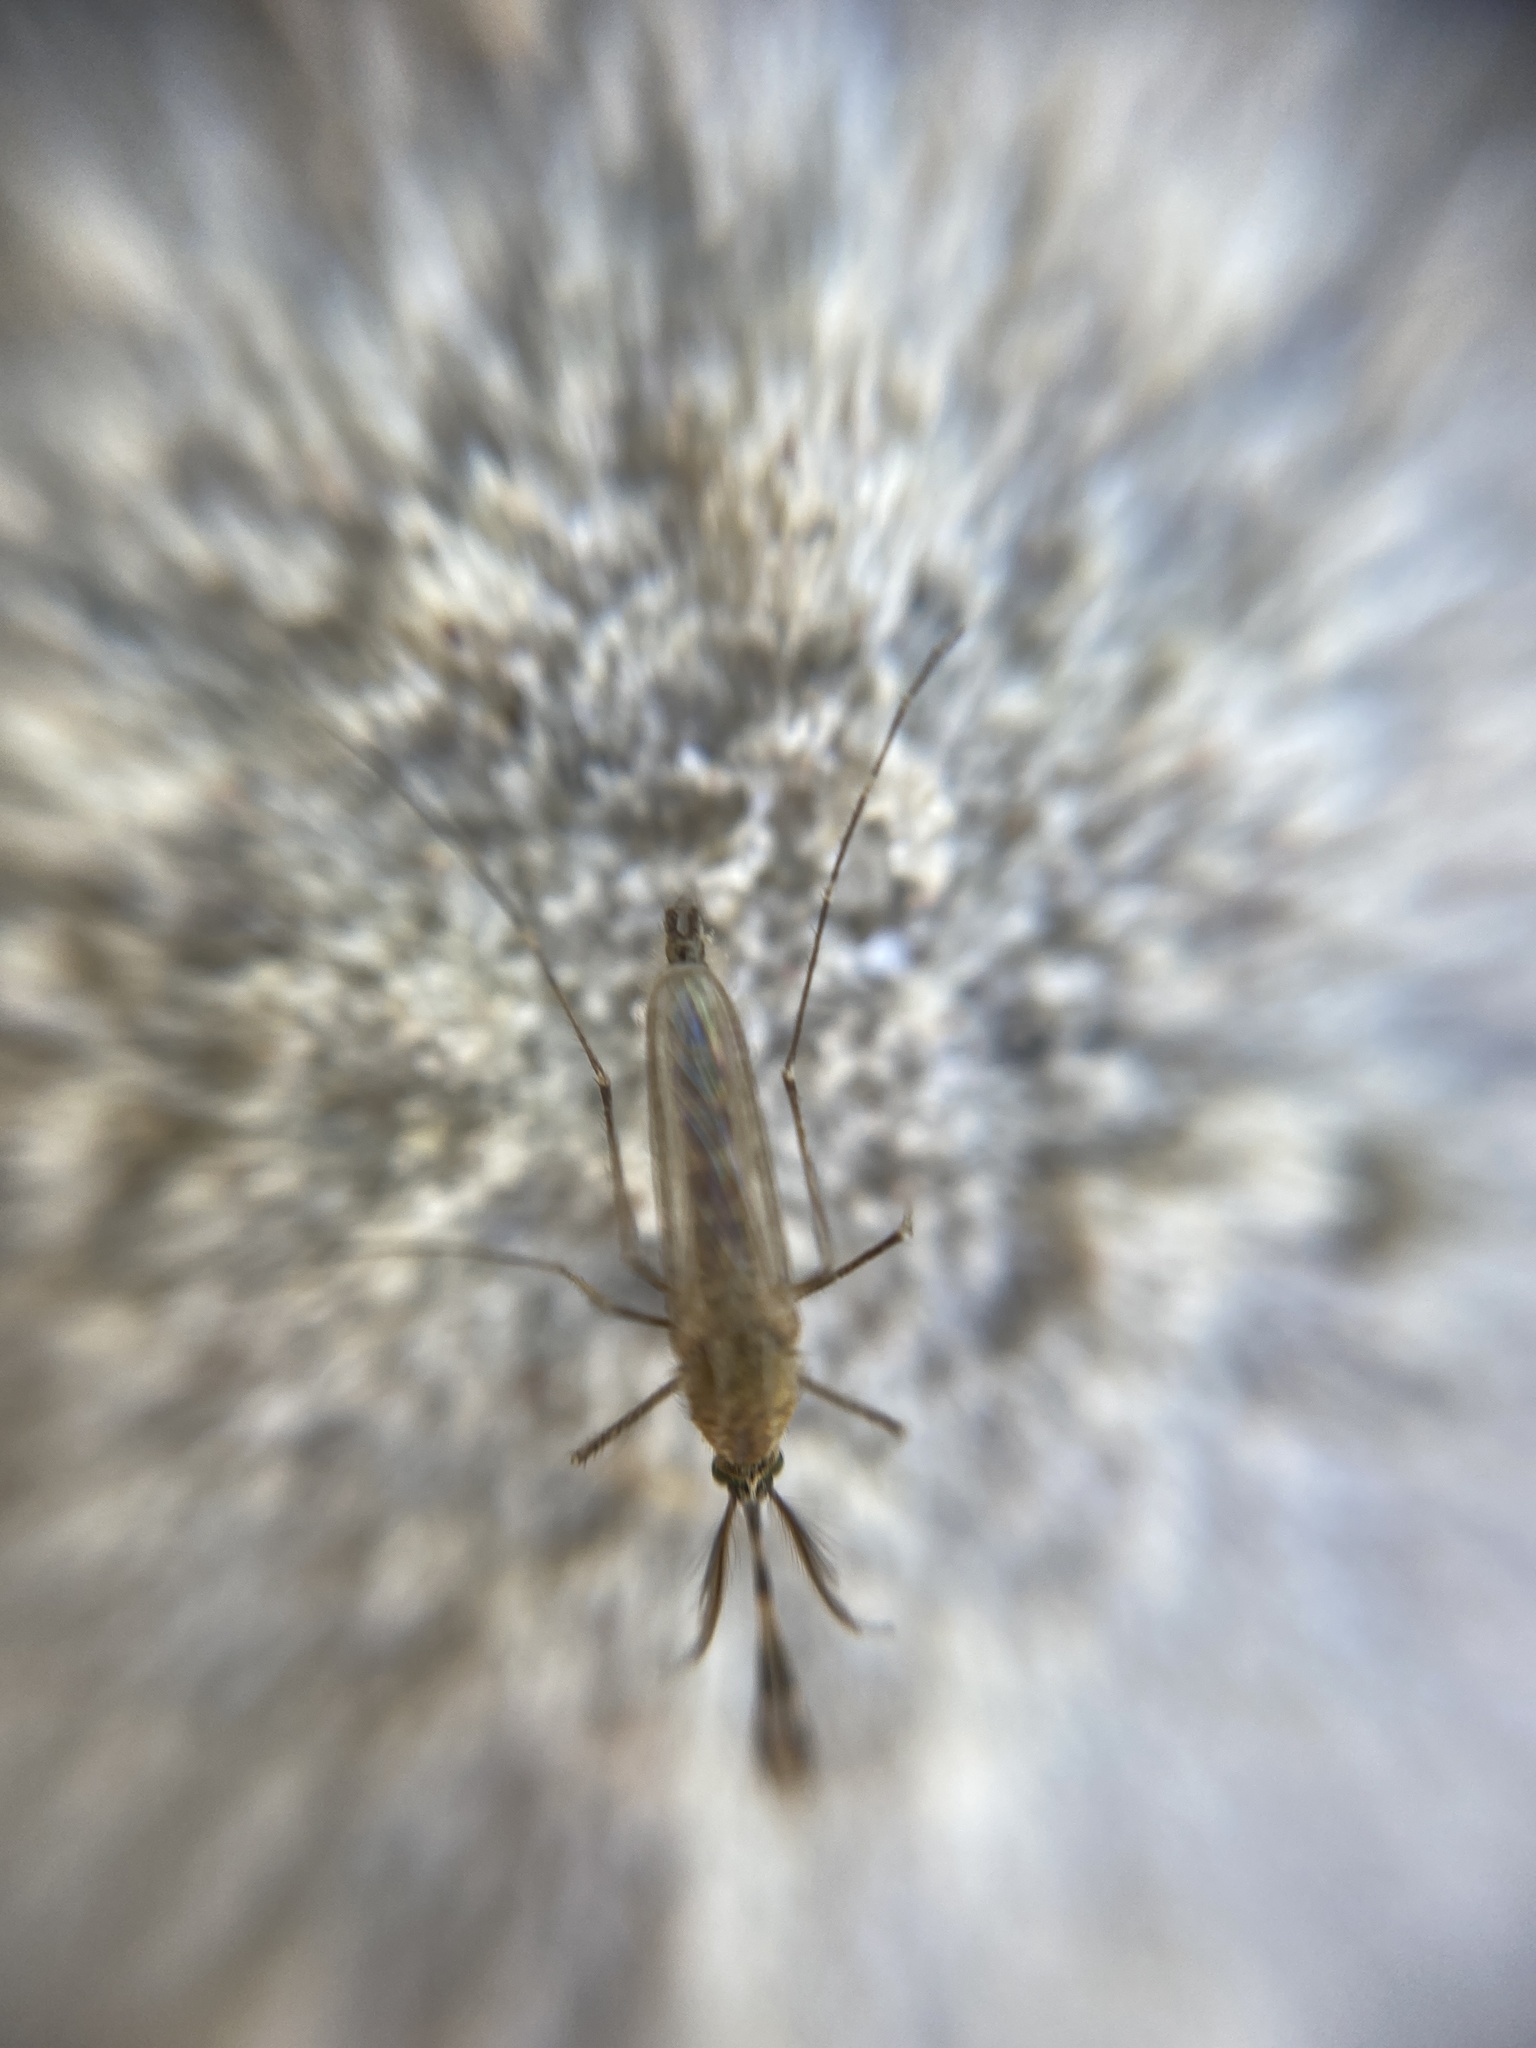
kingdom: Animalia
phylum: Arthropoda
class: Insecta
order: Diptera
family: Culicidae
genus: Aedes
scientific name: Aedes caspius
